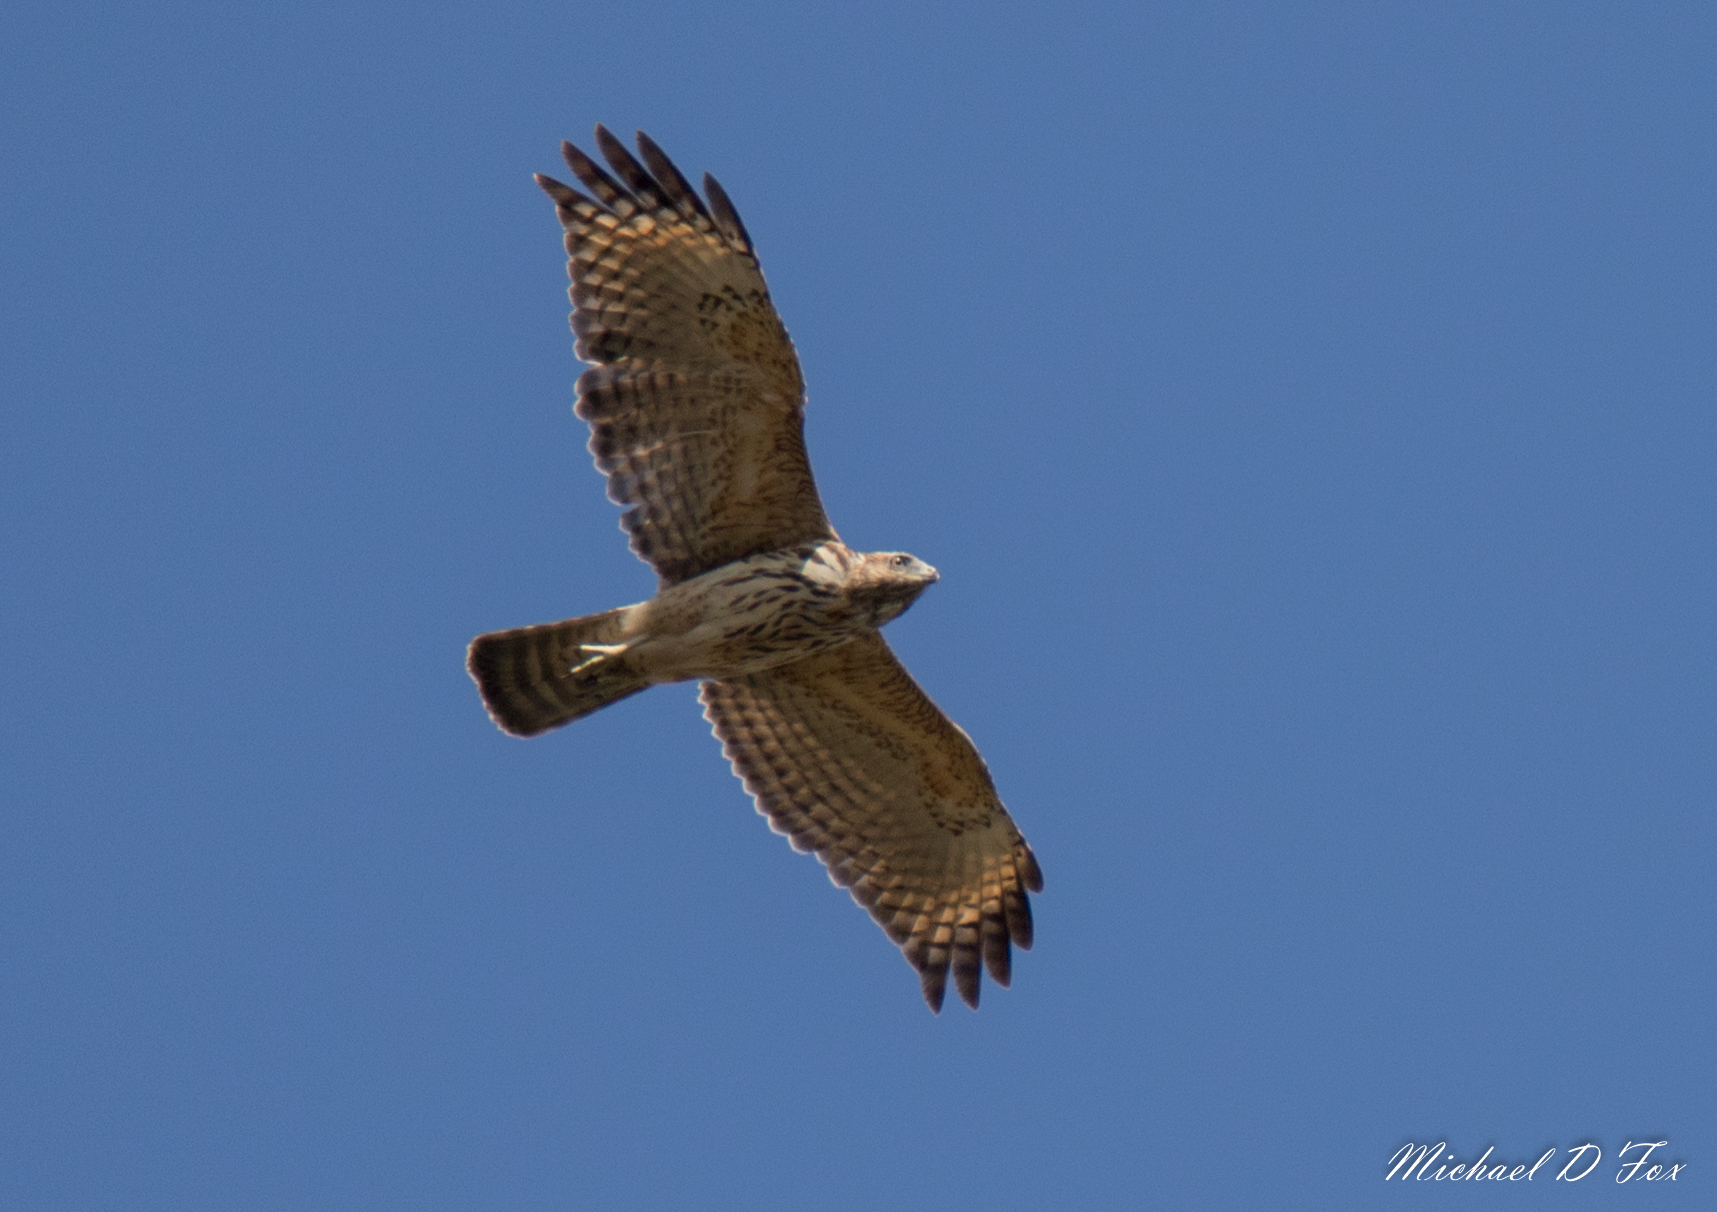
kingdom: Animalia
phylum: Chordata
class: Aves
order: Accipitriformes
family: Accipitridae
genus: Buteo
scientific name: Buteo lineatus
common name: Red-shouldered hawk
